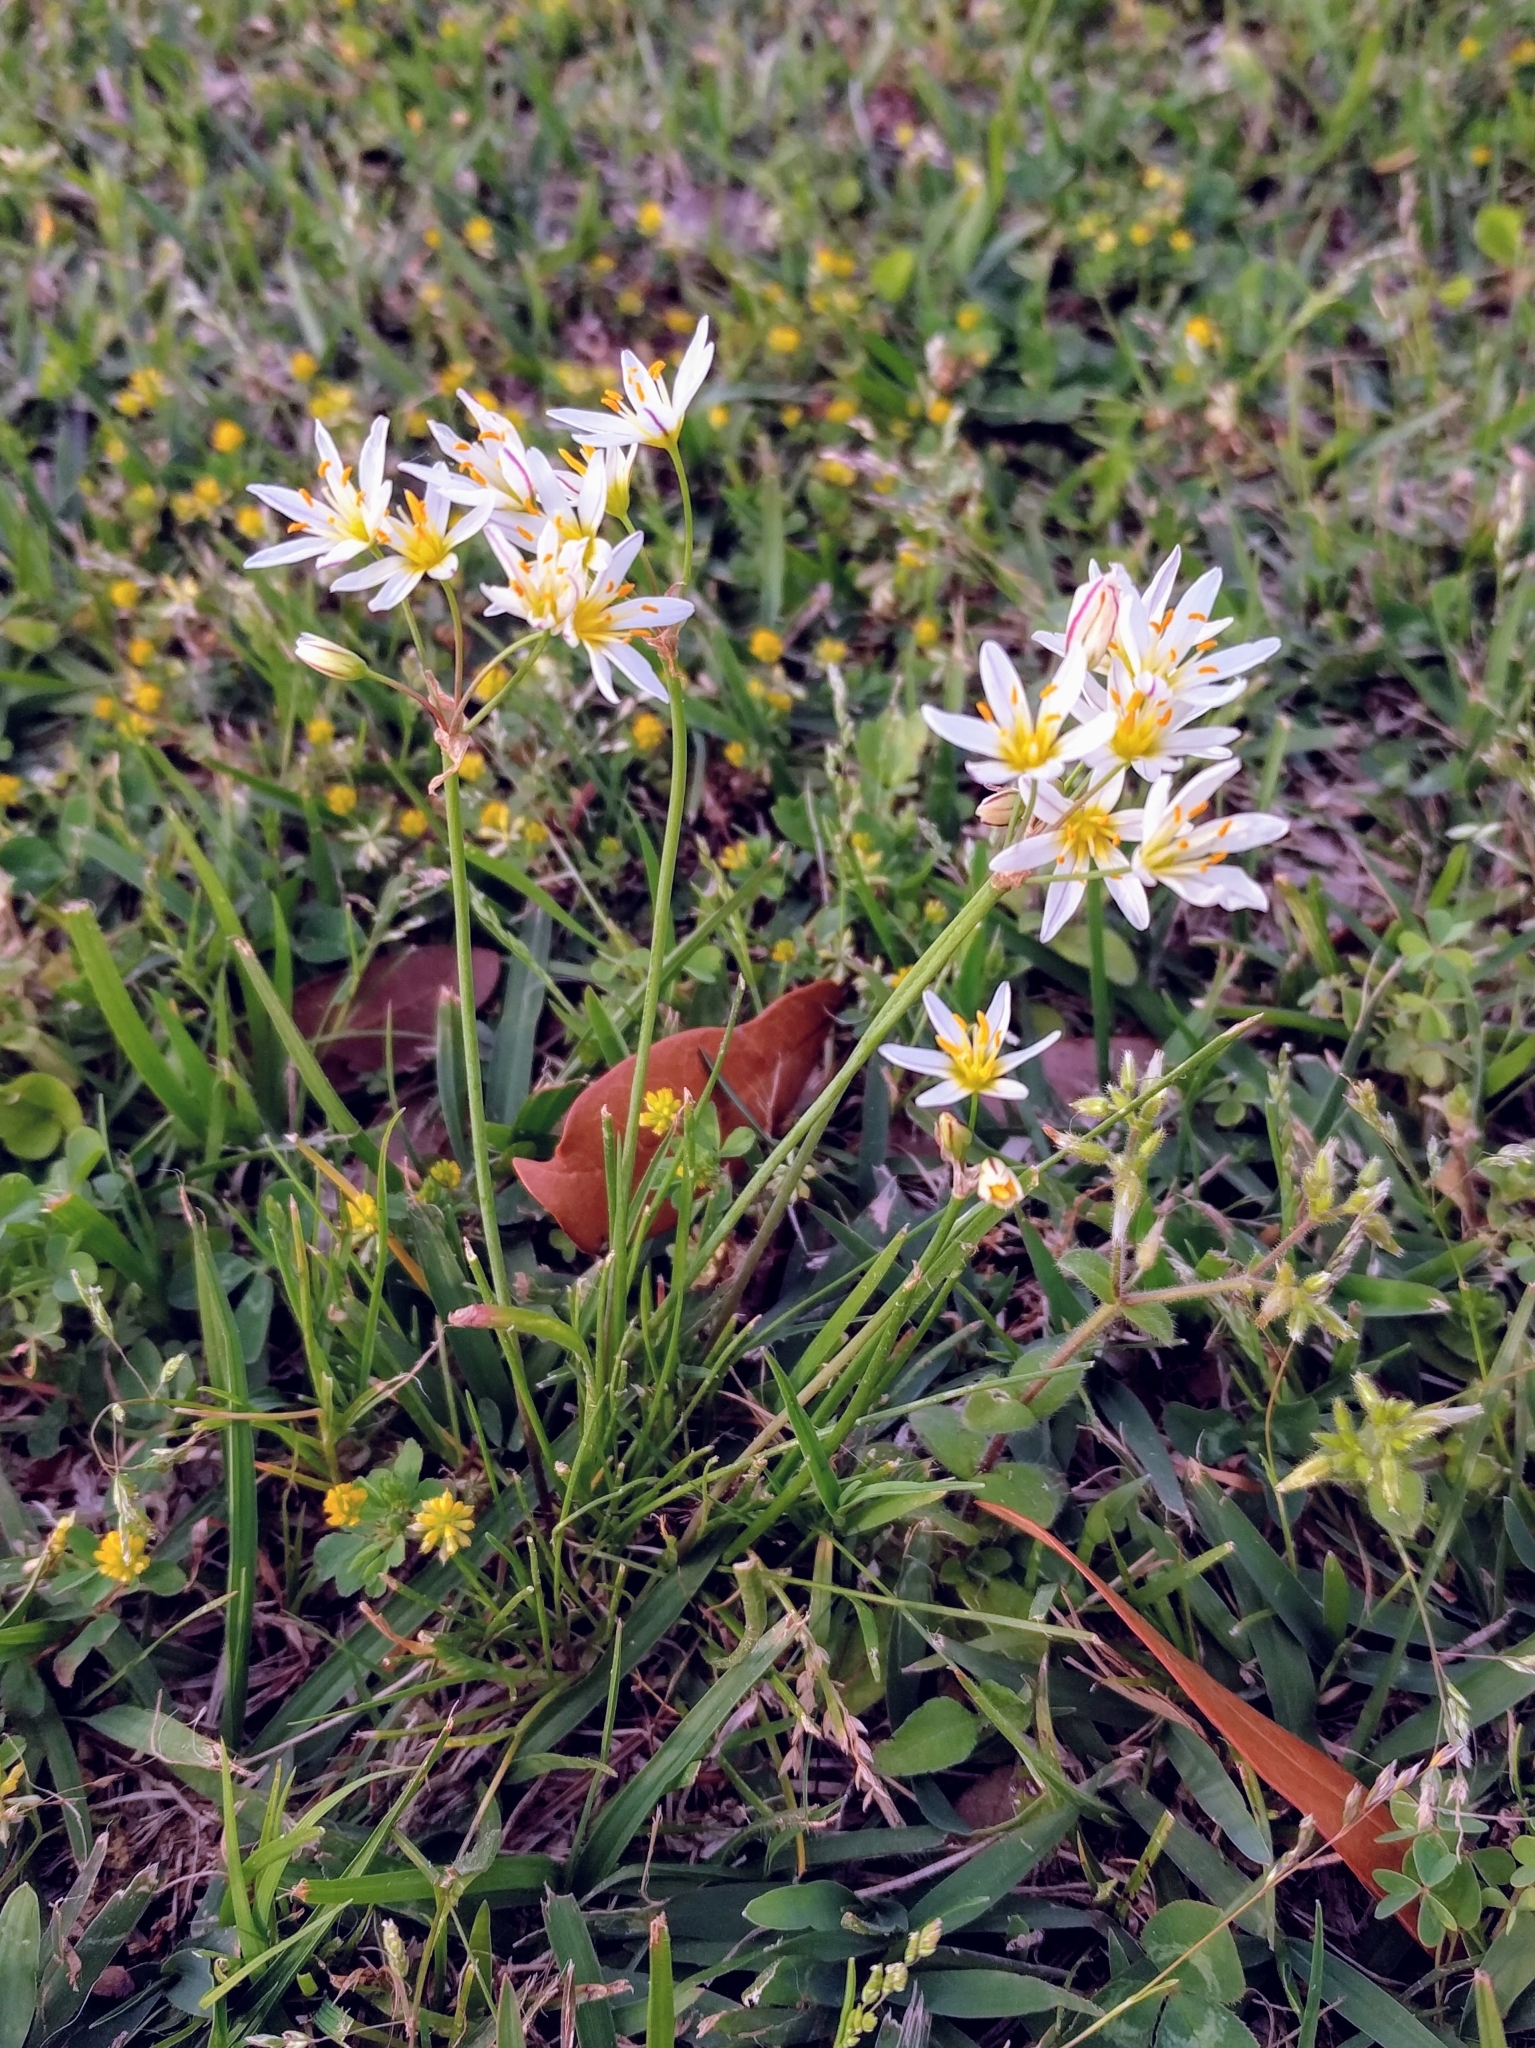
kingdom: Plantae
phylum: Tracheophyta
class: Liliopsida
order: Asparagales
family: Amaryllidaceae
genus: Nothoscordum
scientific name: Nothoscordum bivalve
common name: Crow-poison
